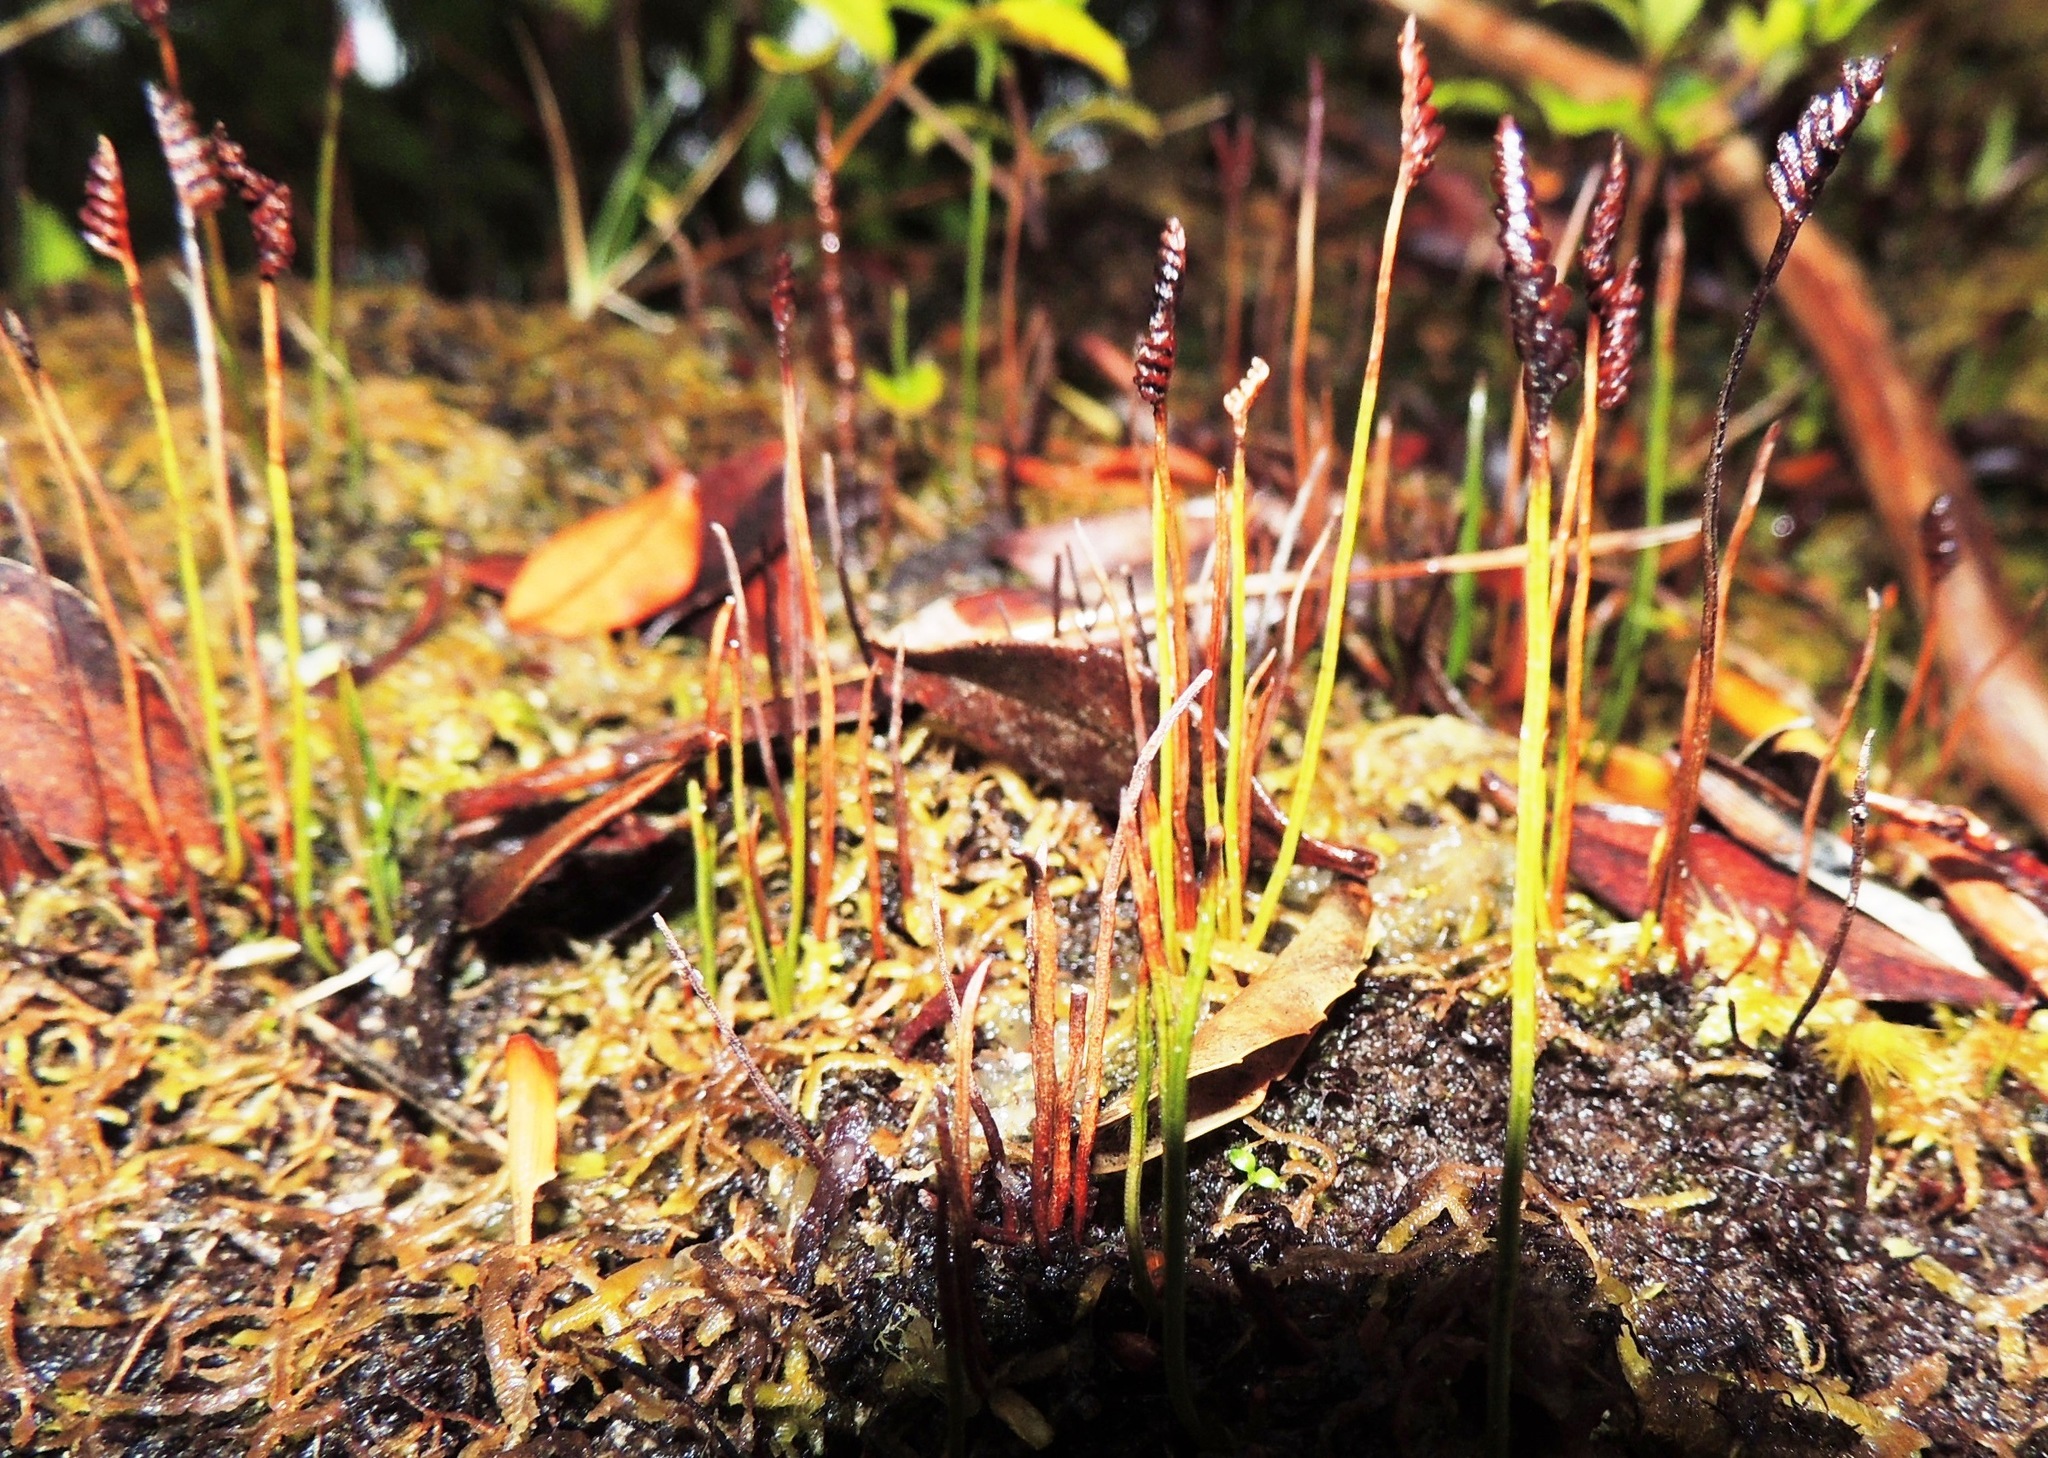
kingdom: Plantae
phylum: Tracheophyta
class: Polypodiopsida
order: Schizaeales
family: Schizaeaceae
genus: Microschizaea
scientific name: Microschizaea australis
